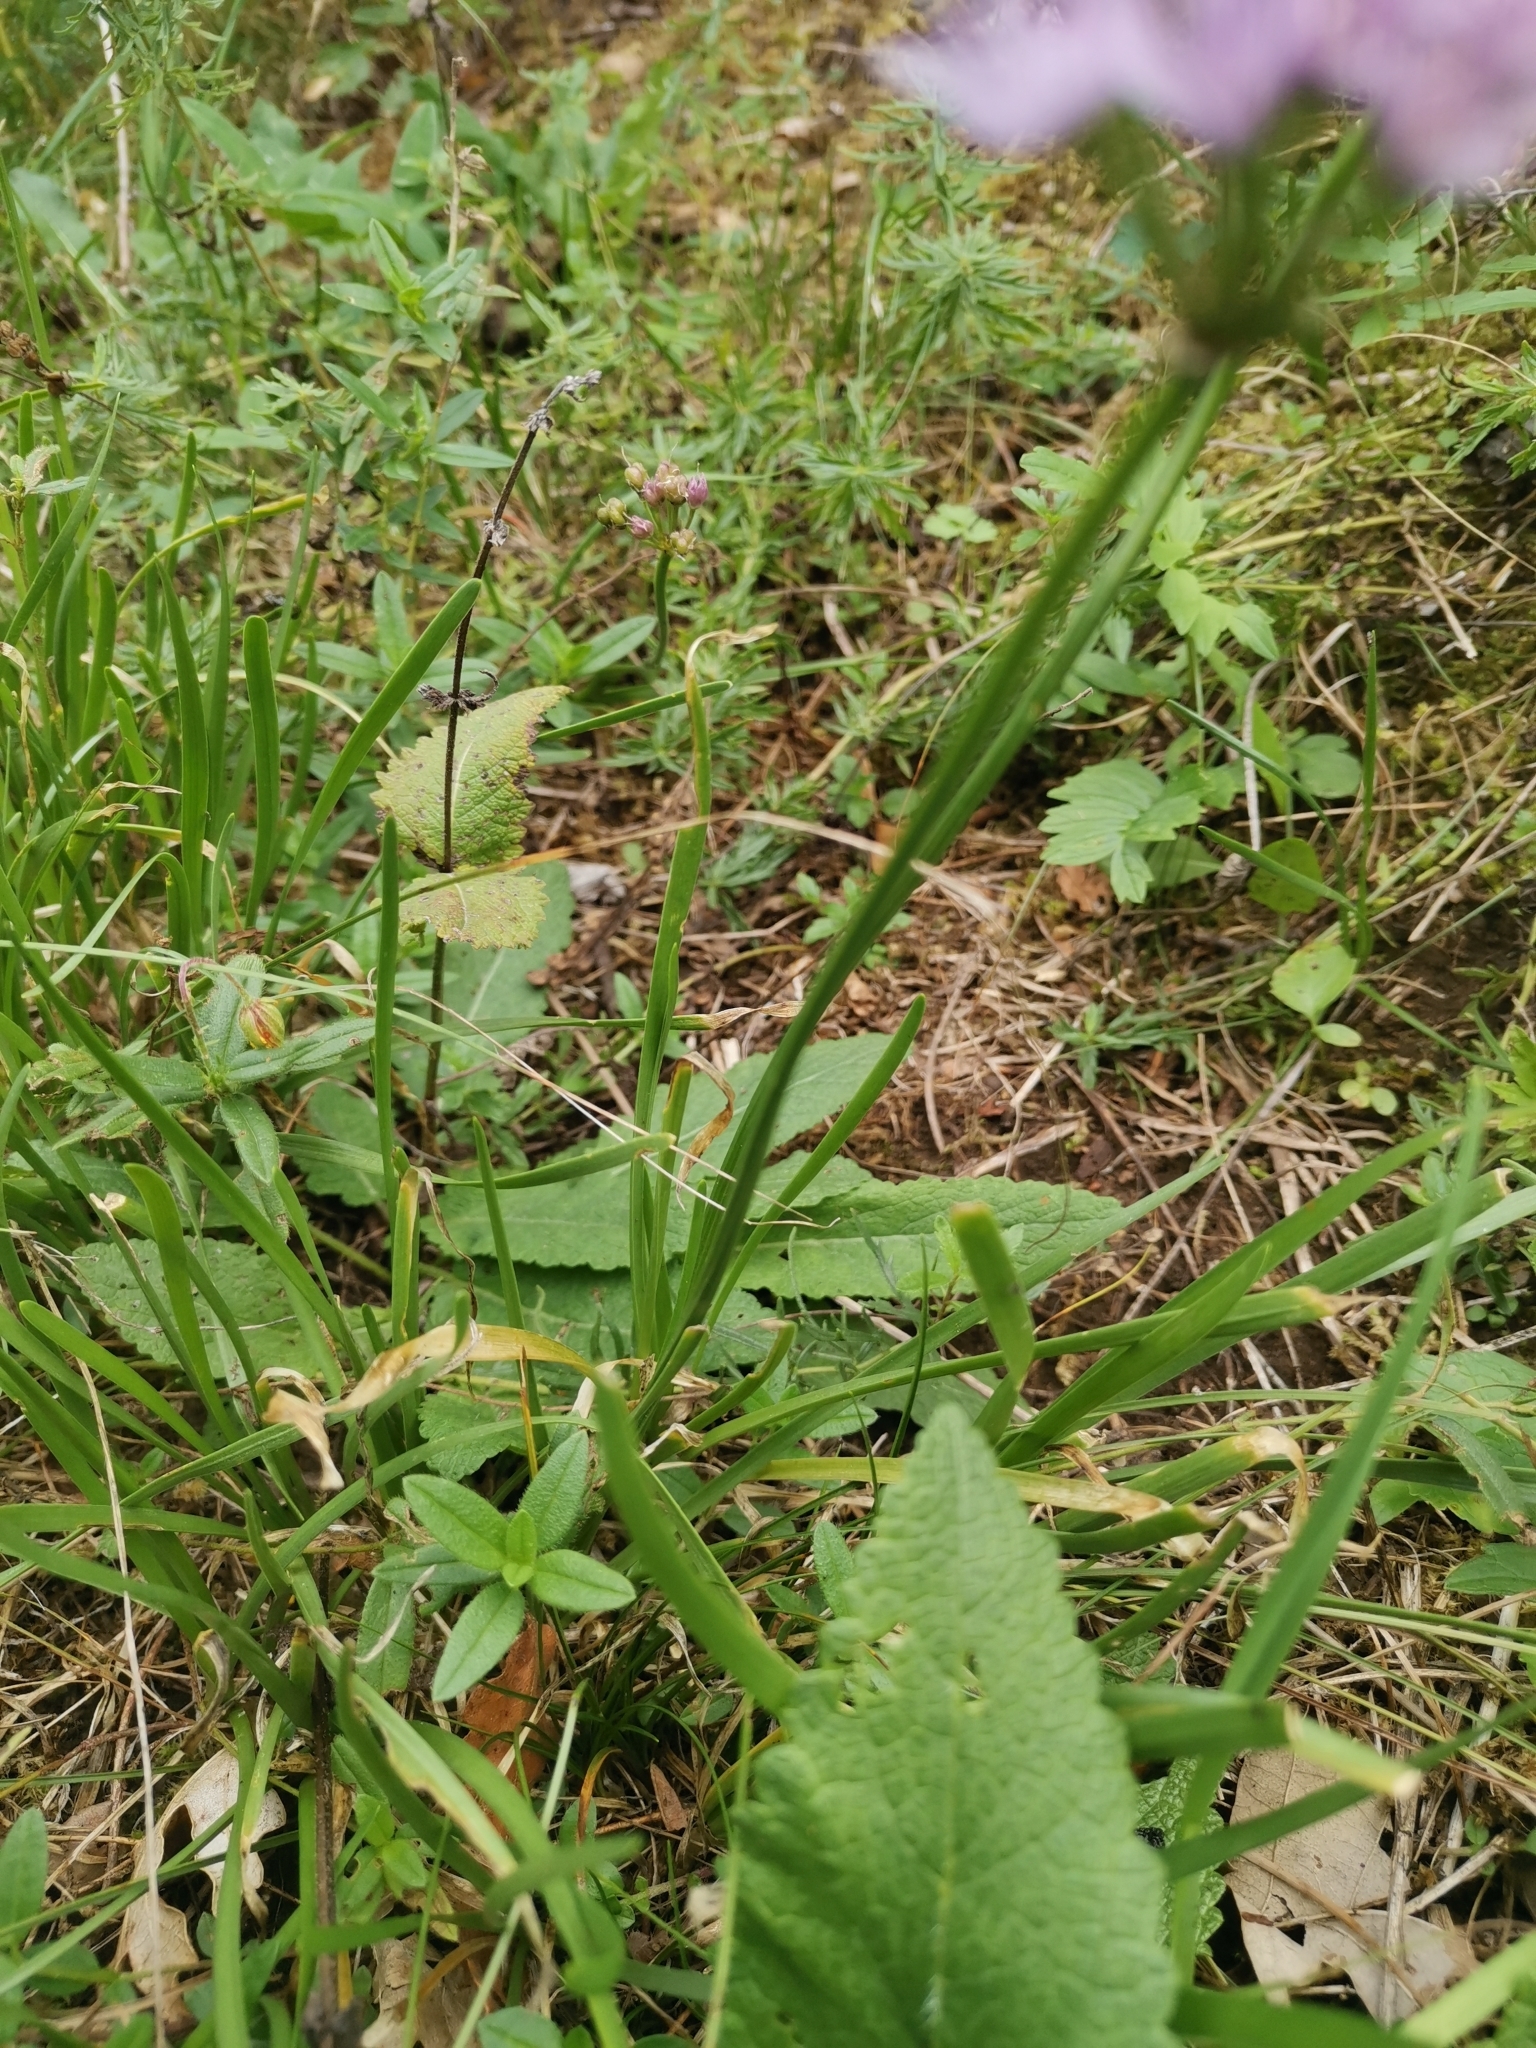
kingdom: Plantae
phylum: Tracheophyta
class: Liliopsida
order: Asparagales
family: Amaryllidaceae
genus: Allium
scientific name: Allium lusitanicum
